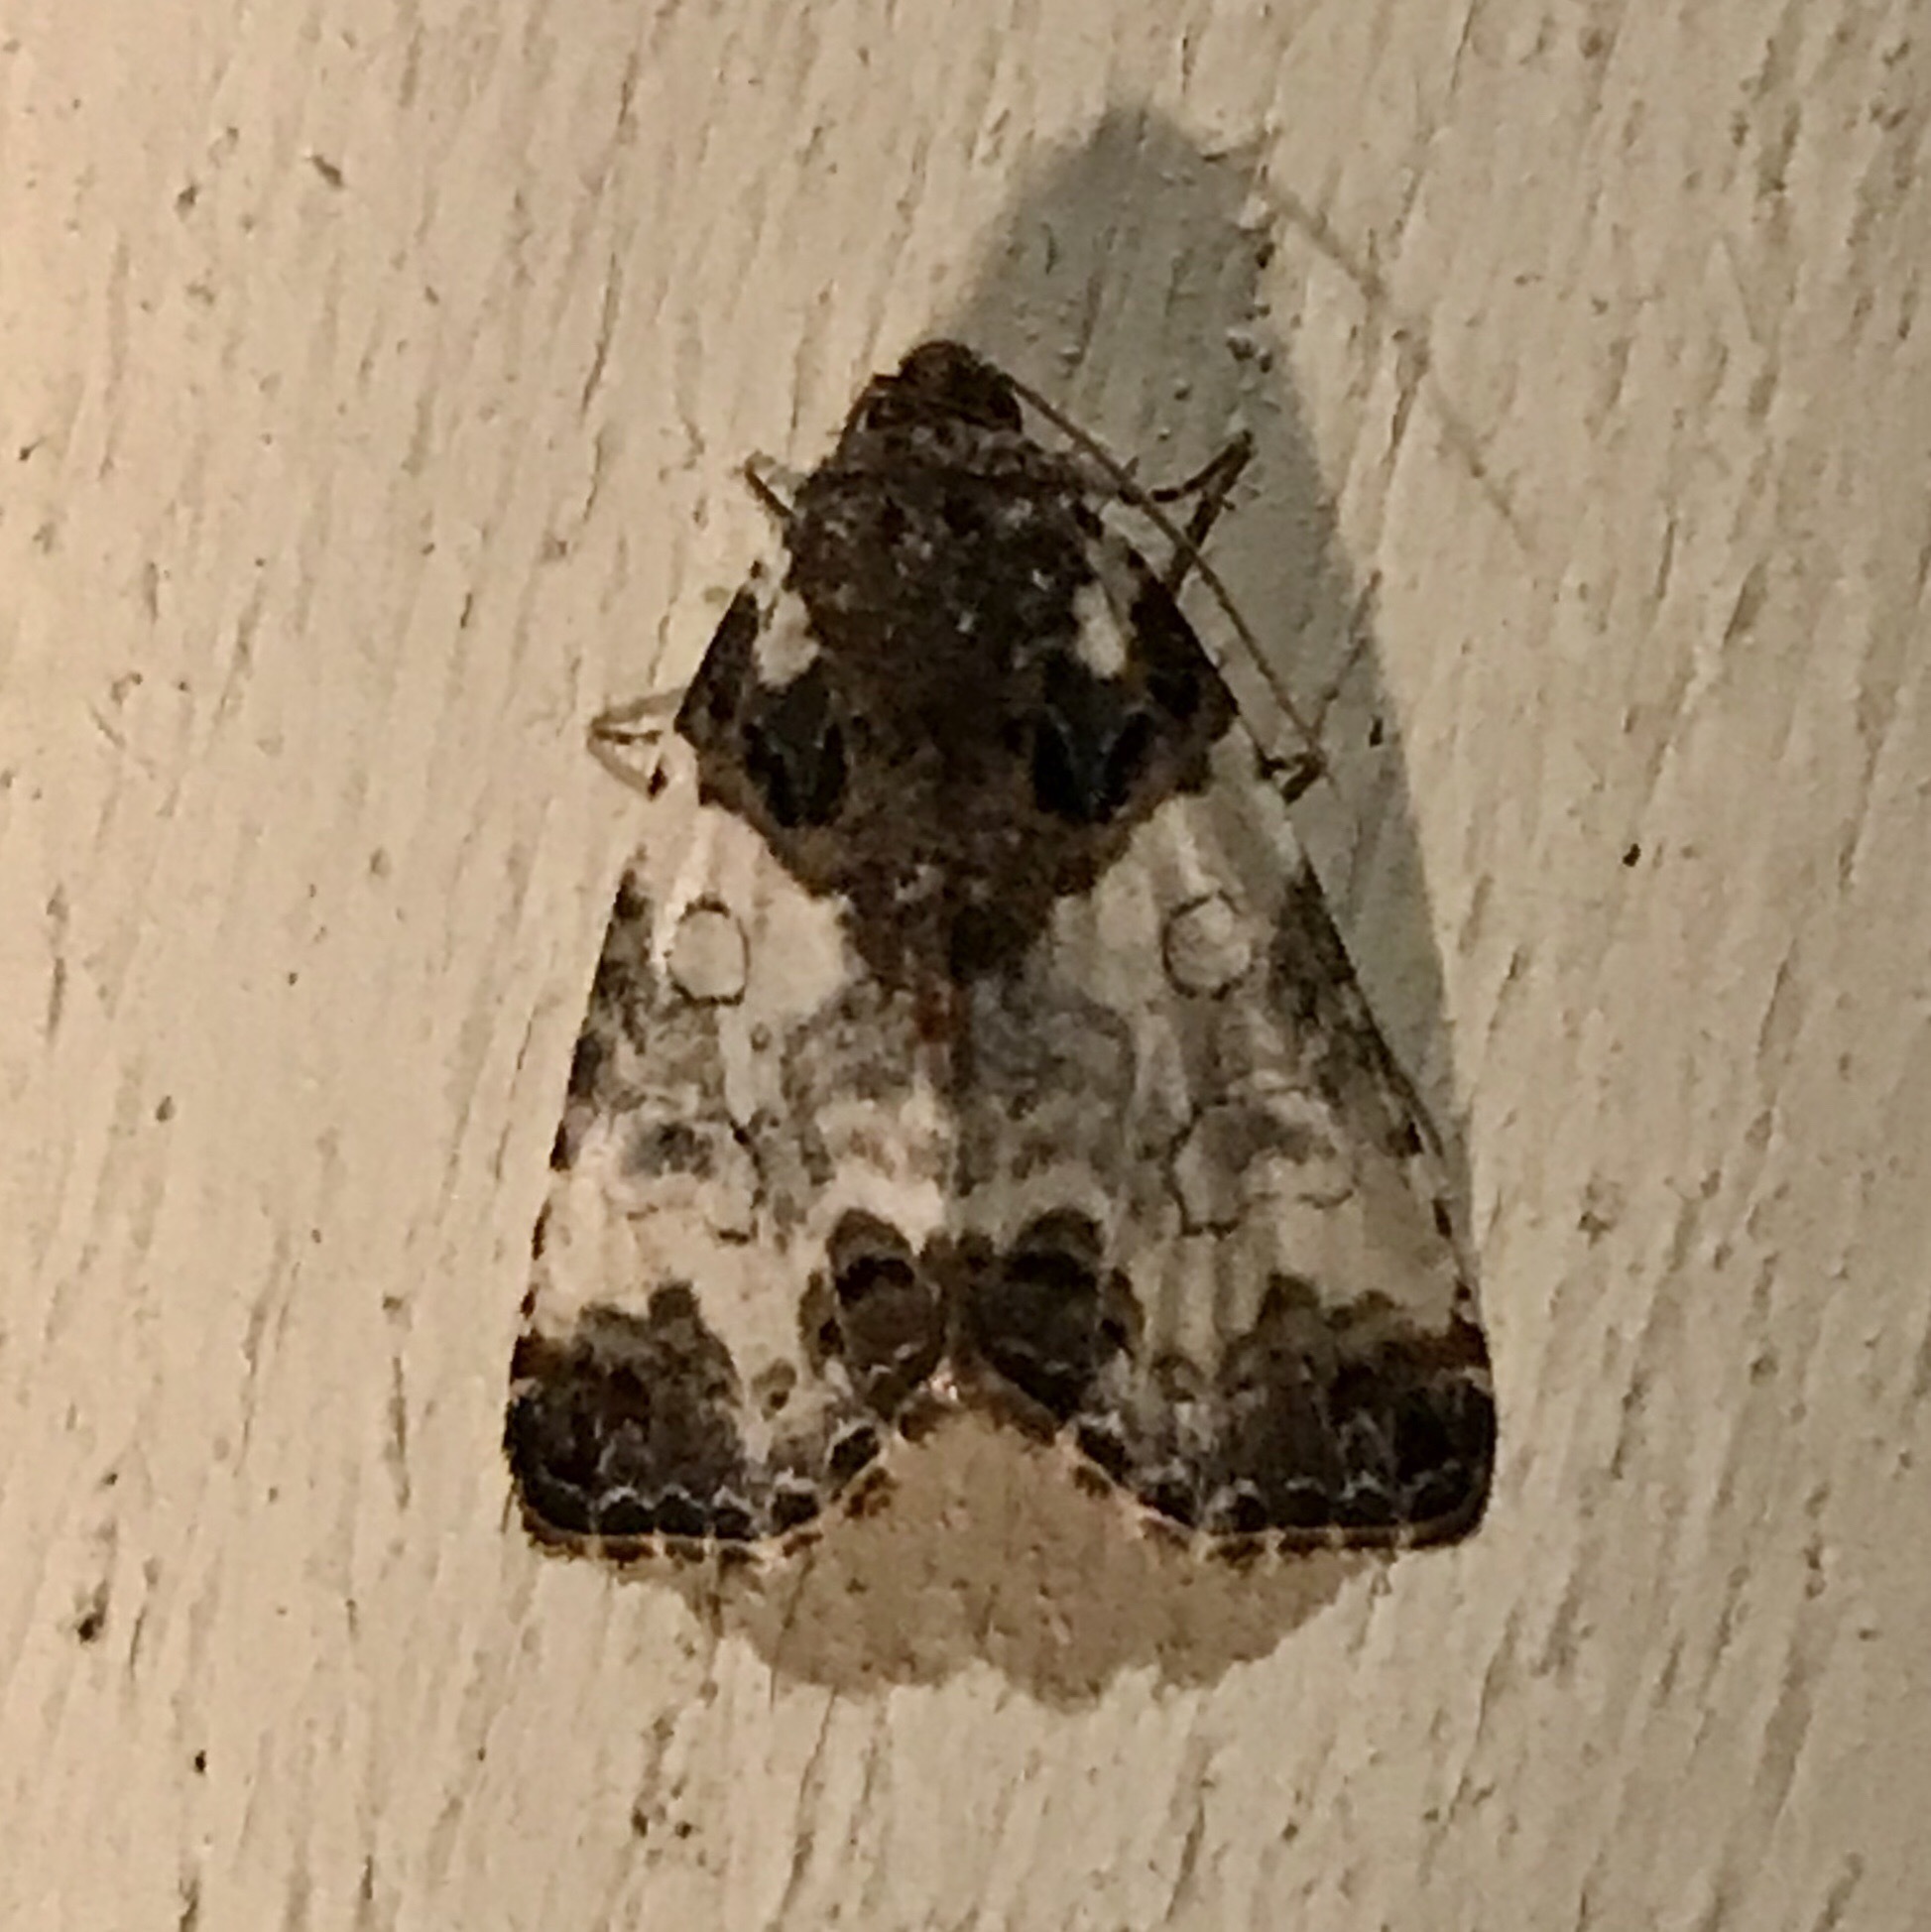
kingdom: Animalia
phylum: Arthropoda
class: Insecta
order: Lepidoptera
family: Noctuidae
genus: Cerma
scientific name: Cerma cerintha
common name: Tufted bird-dropping moth
